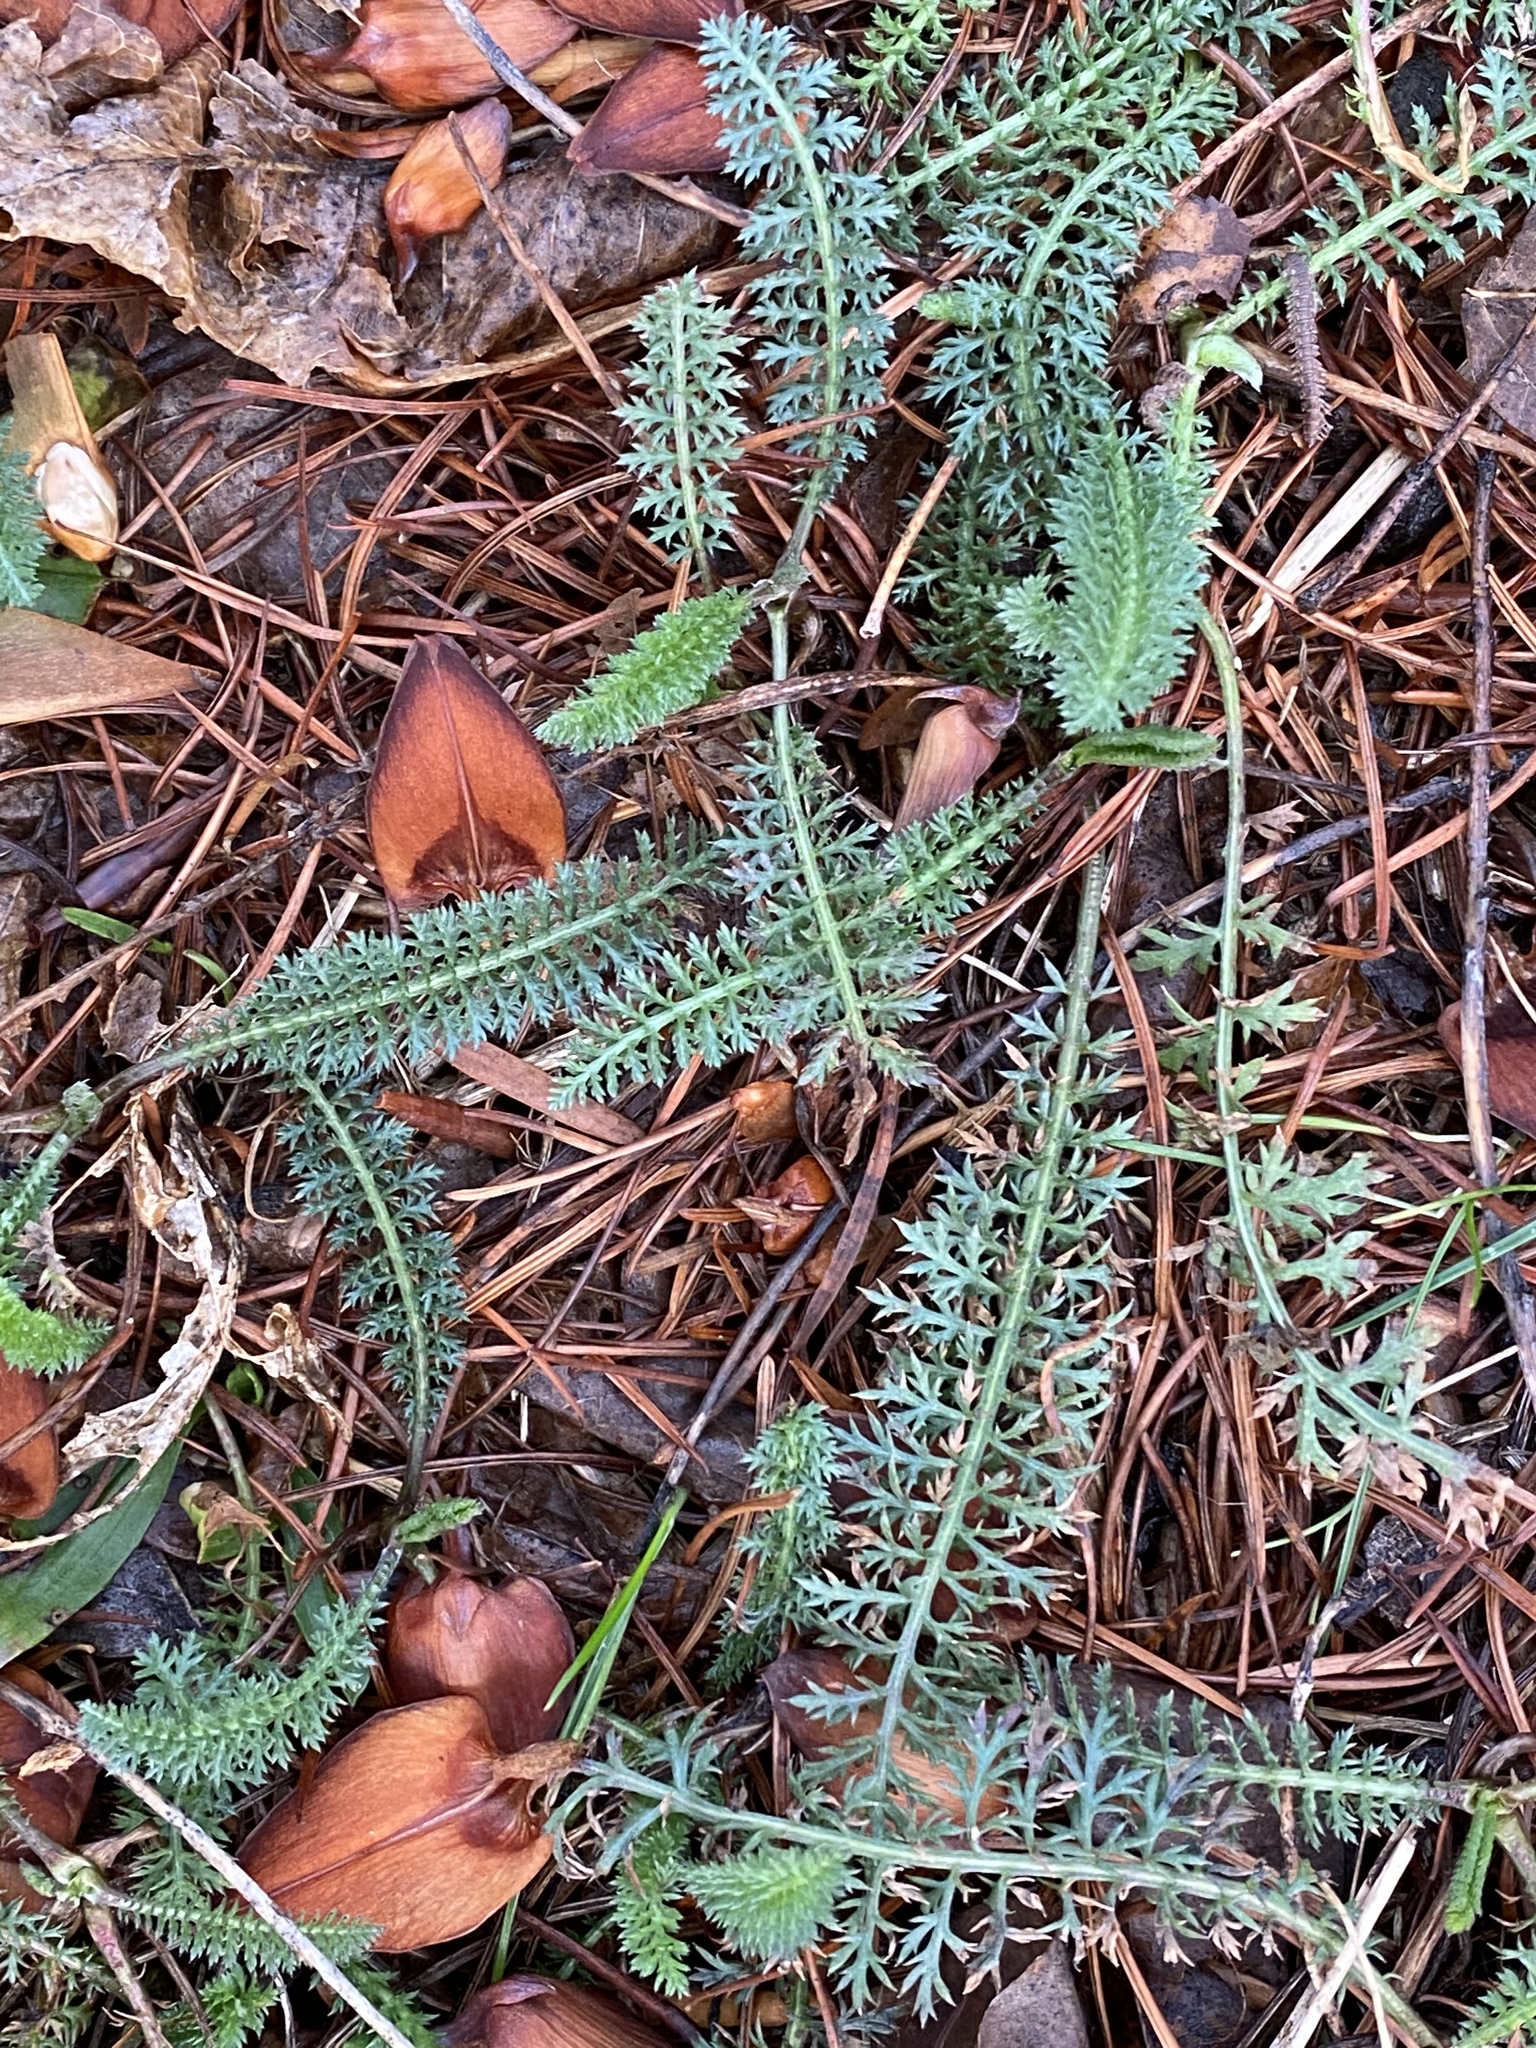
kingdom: Plantae
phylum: Tracheophyta
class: Magnoliopsida
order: Asterales
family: Asteraceae
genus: Achillea
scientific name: Achillea millefolium
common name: Yarrow
